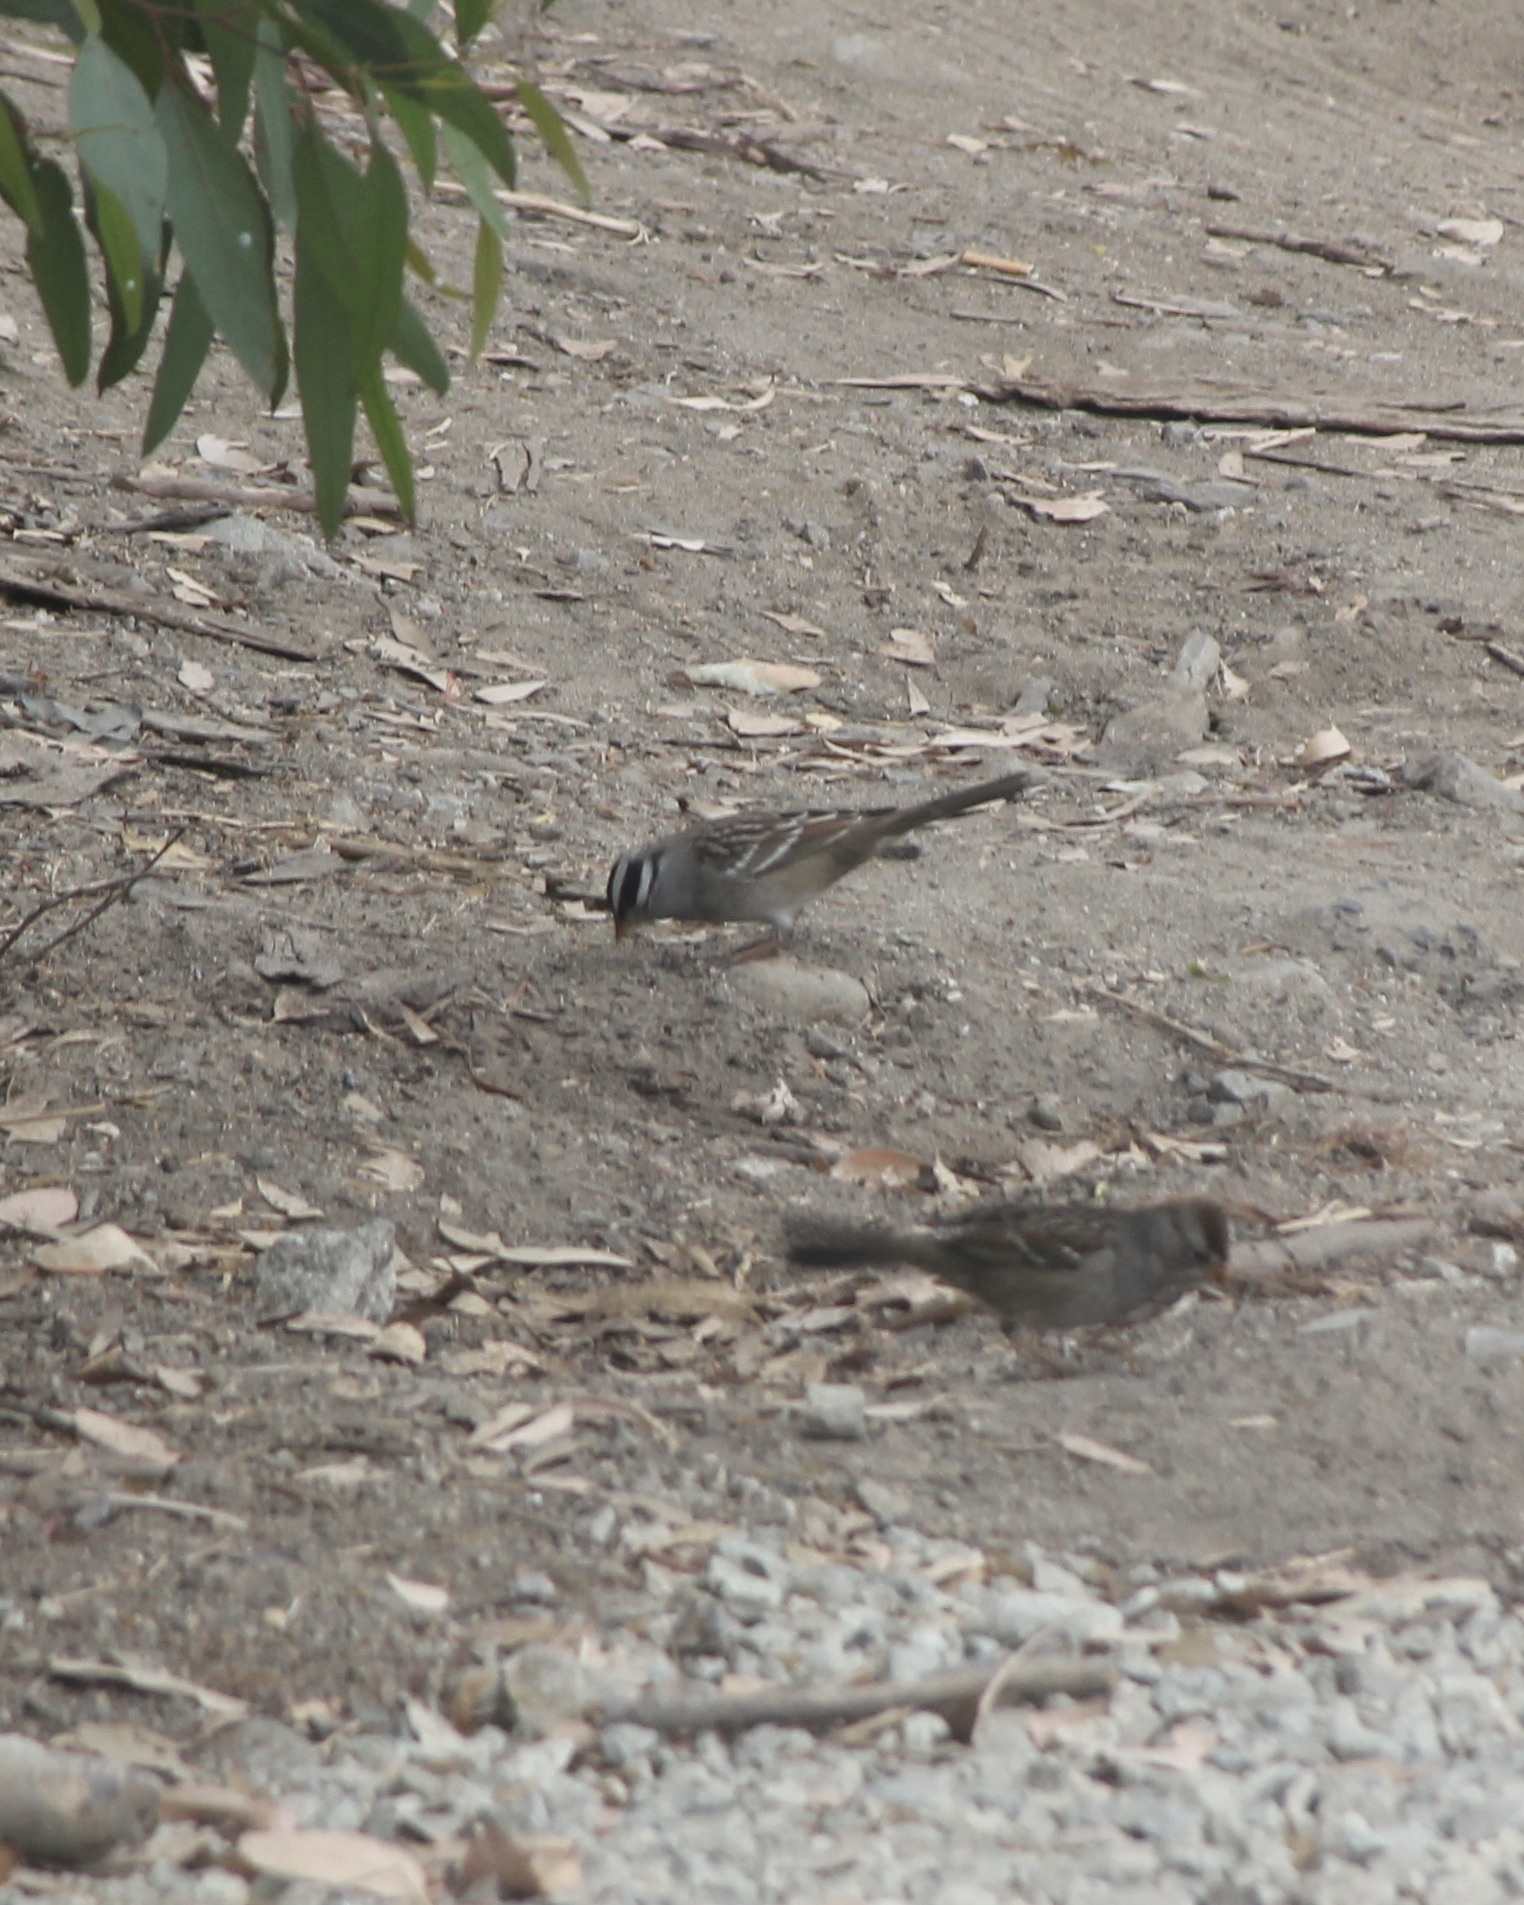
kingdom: Animalia
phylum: Chordata
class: Aves
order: Passeriformes
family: Passerellidae
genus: Zonotrichia
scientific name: Zonotrichia leucophrys
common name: White-crowned sparrow
